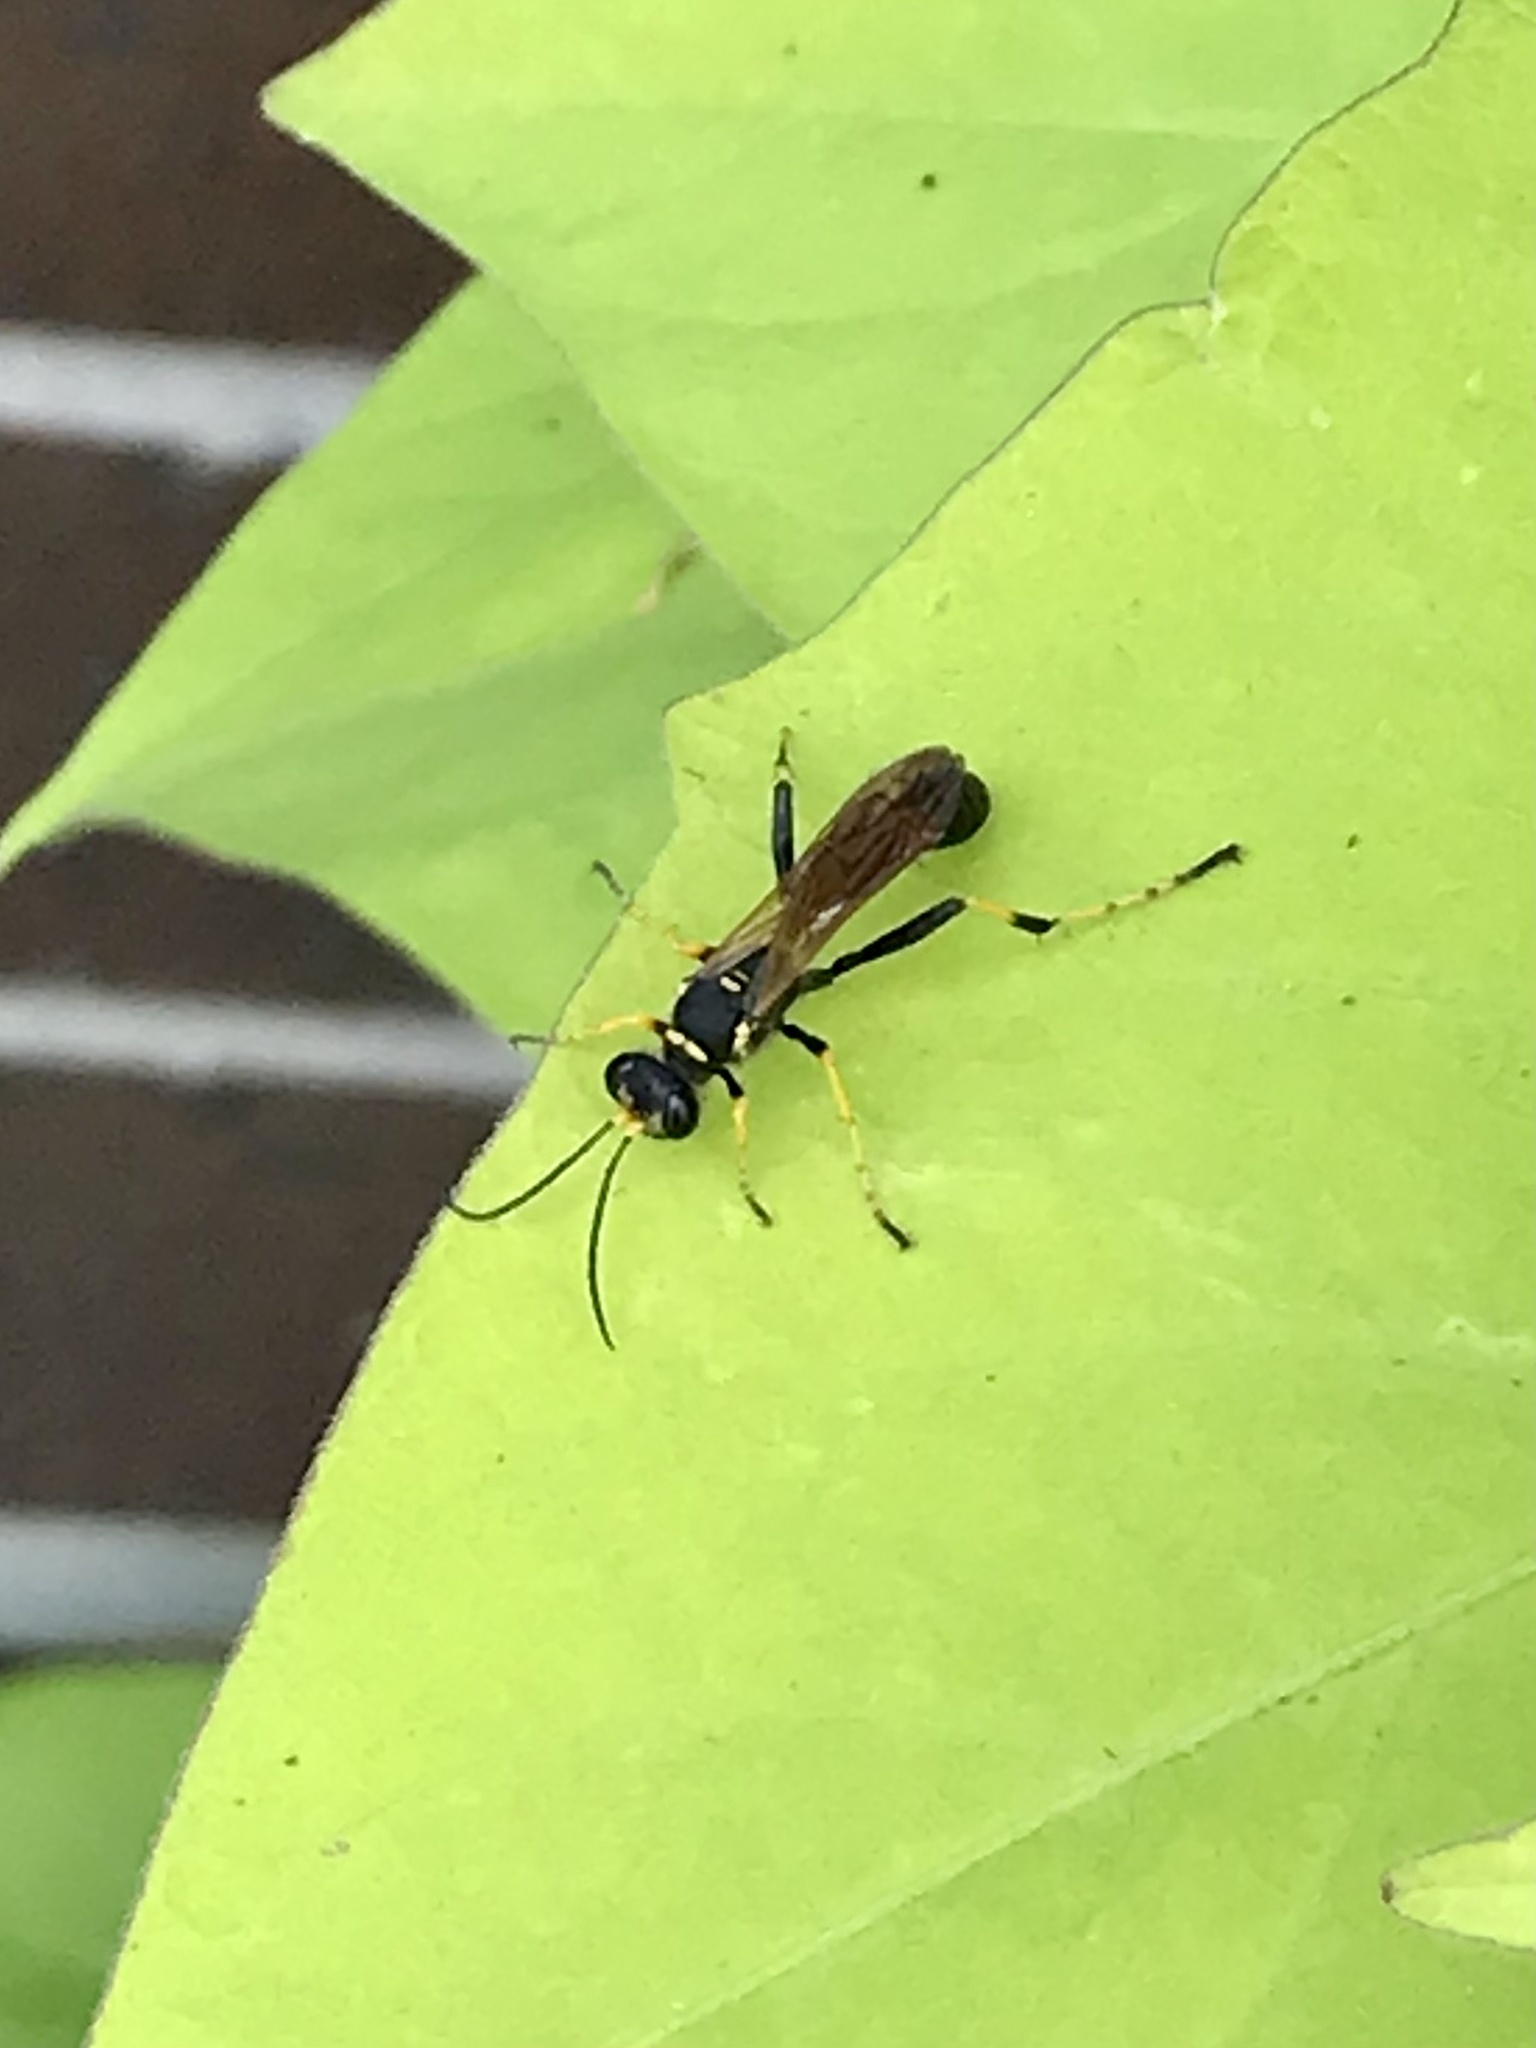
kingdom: Animalia
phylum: Arthropoda
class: Insecta
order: Hymenoptera
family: Sphecidae
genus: Sceliphron
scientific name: Sceliphron caementarium
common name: Mud dauber
